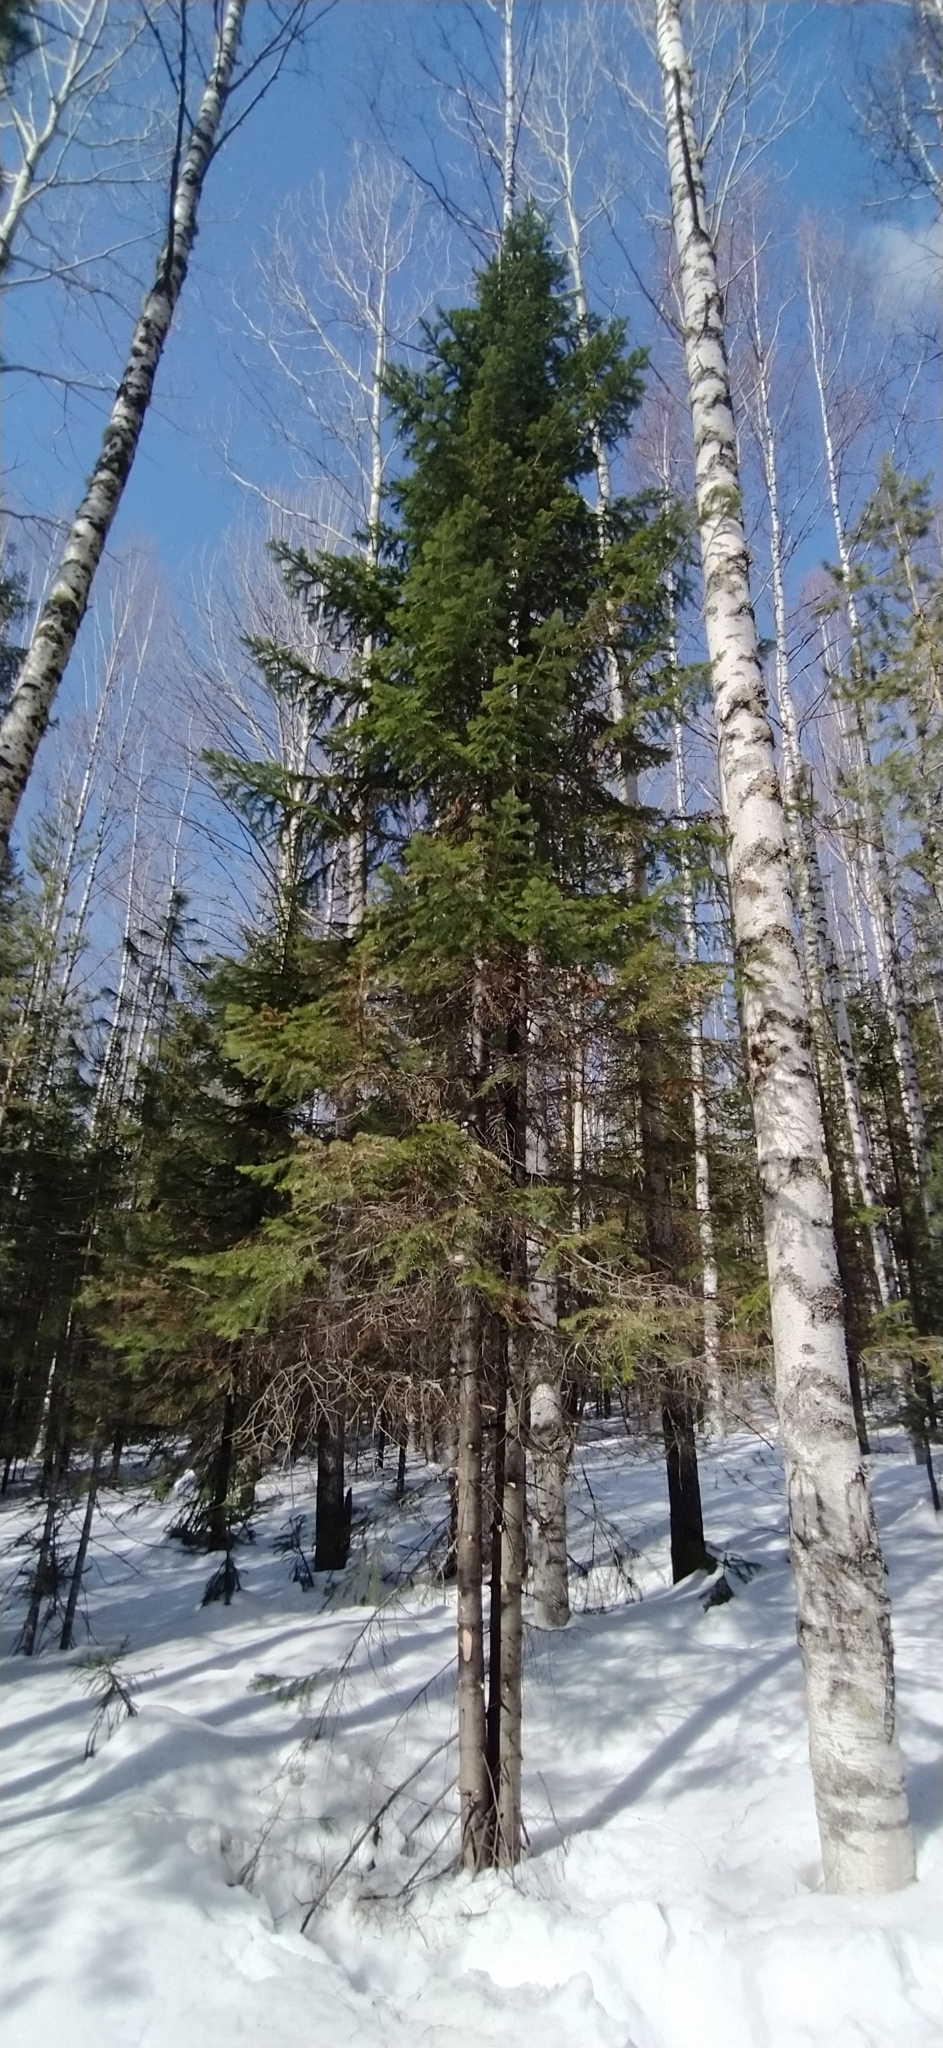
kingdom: Plantae
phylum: Tracheophyta
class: Pinopsida
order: Pinales
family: Pinaceae
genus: Abies
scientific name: Abies sibirica
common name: Siberian fir
